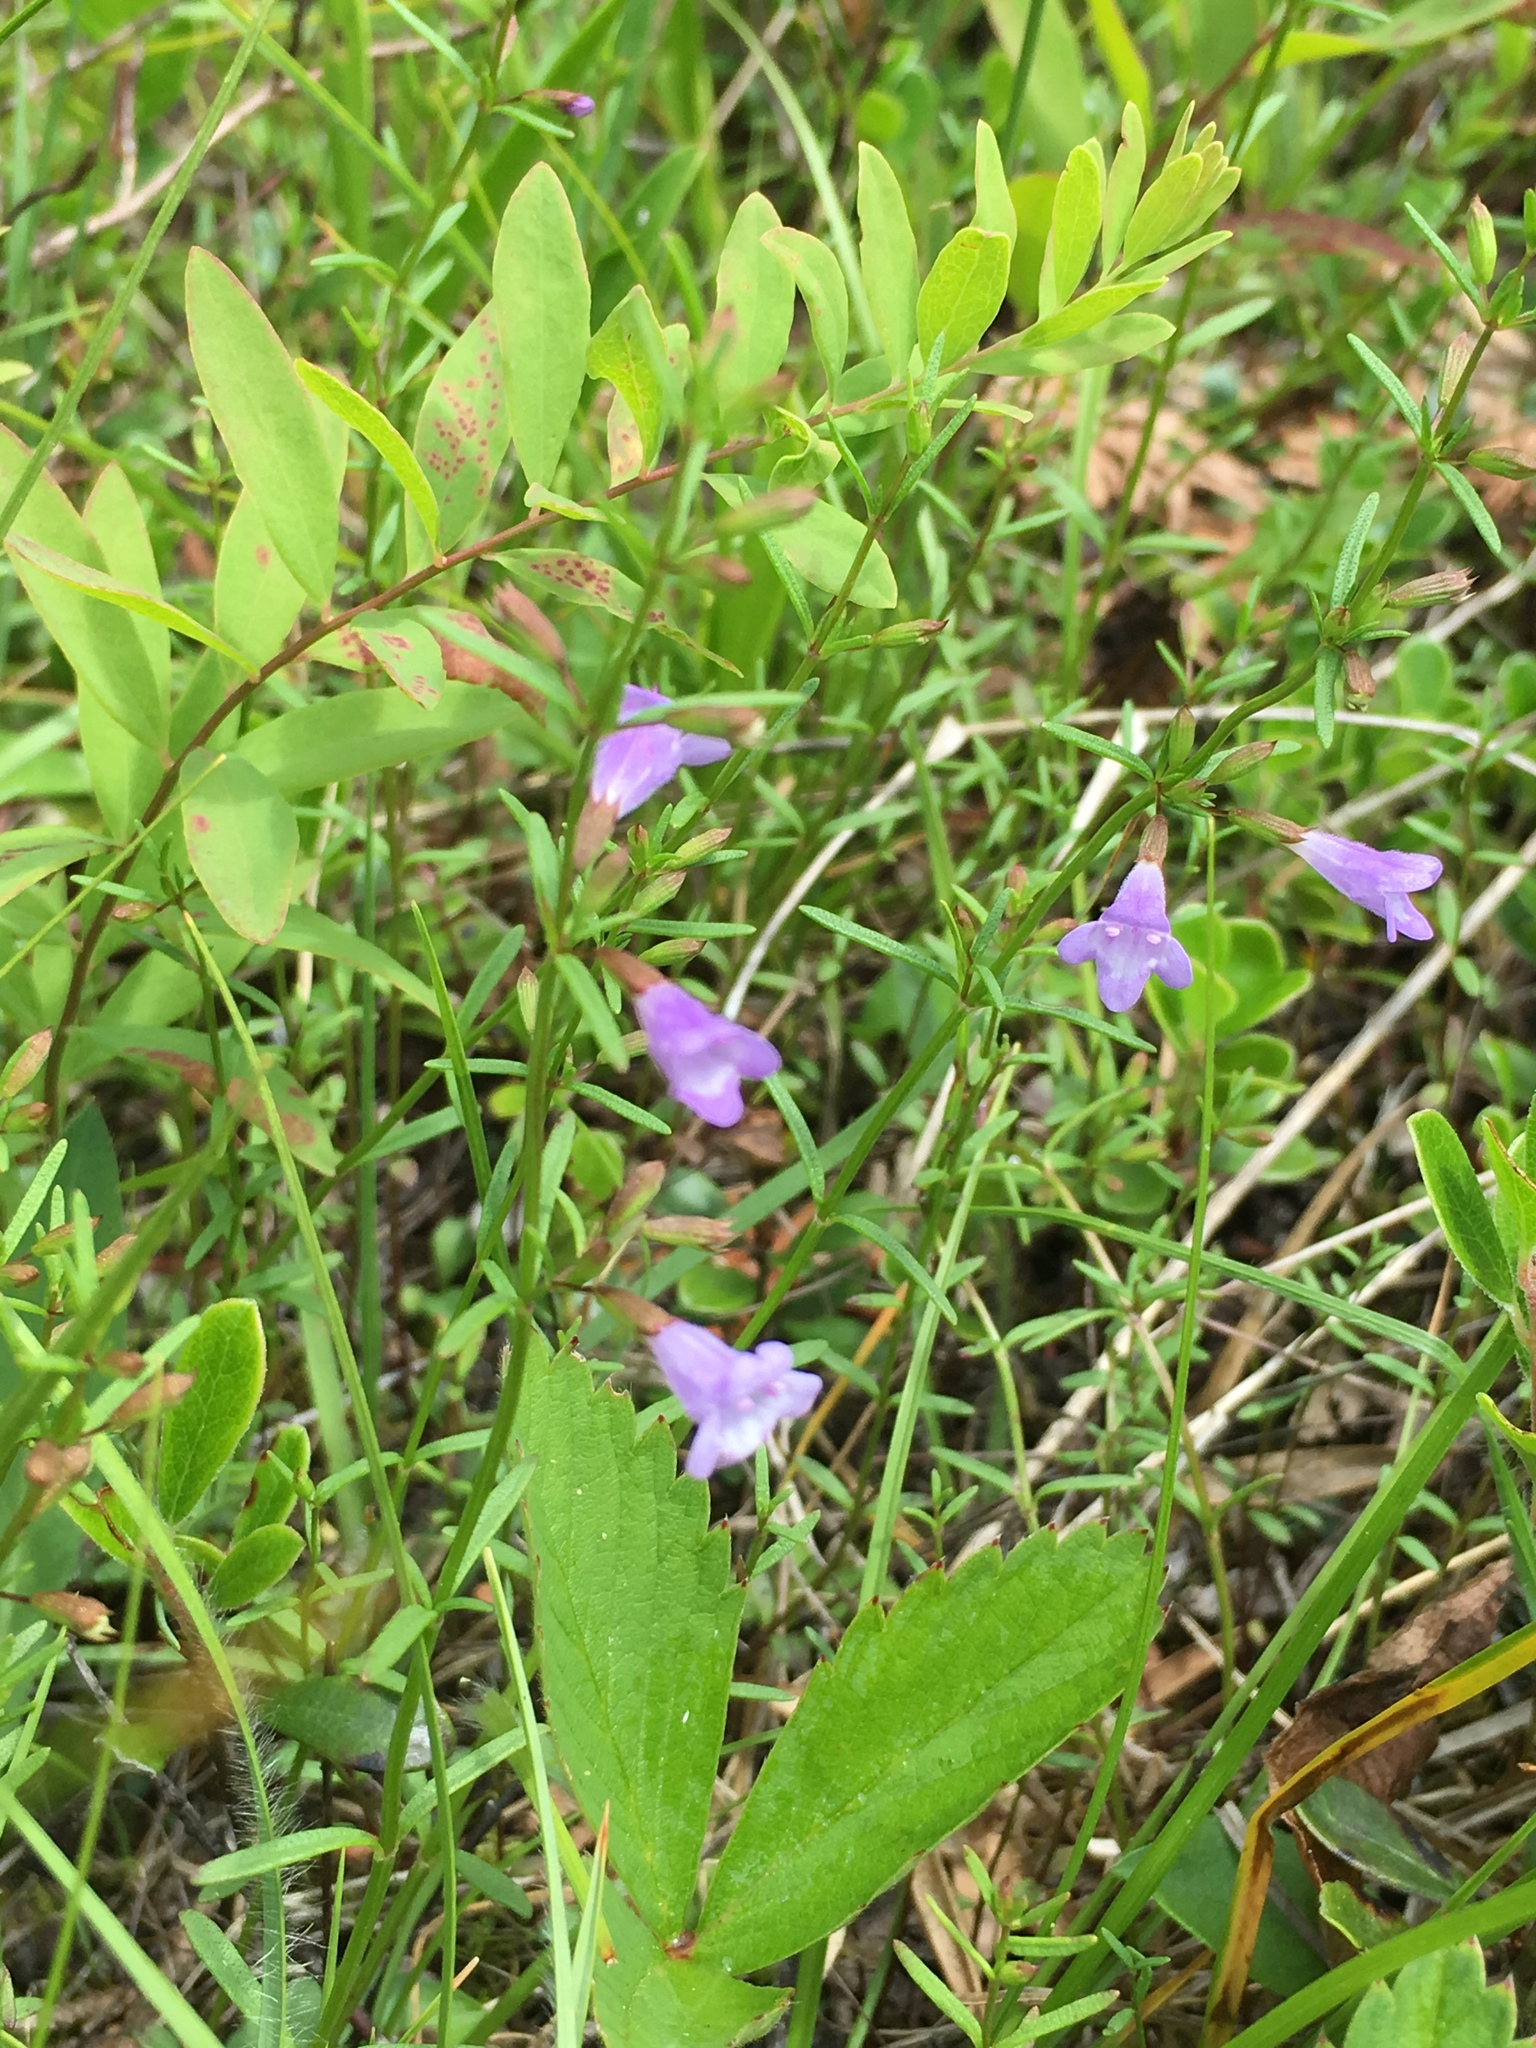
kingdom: Plantae
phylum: Tracheophyta
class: Magnoliopsida
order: Lamiales
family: Lamiaceae
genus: Clinopodium
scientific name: Clinopodium arkansanum
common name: Limestone calamint
